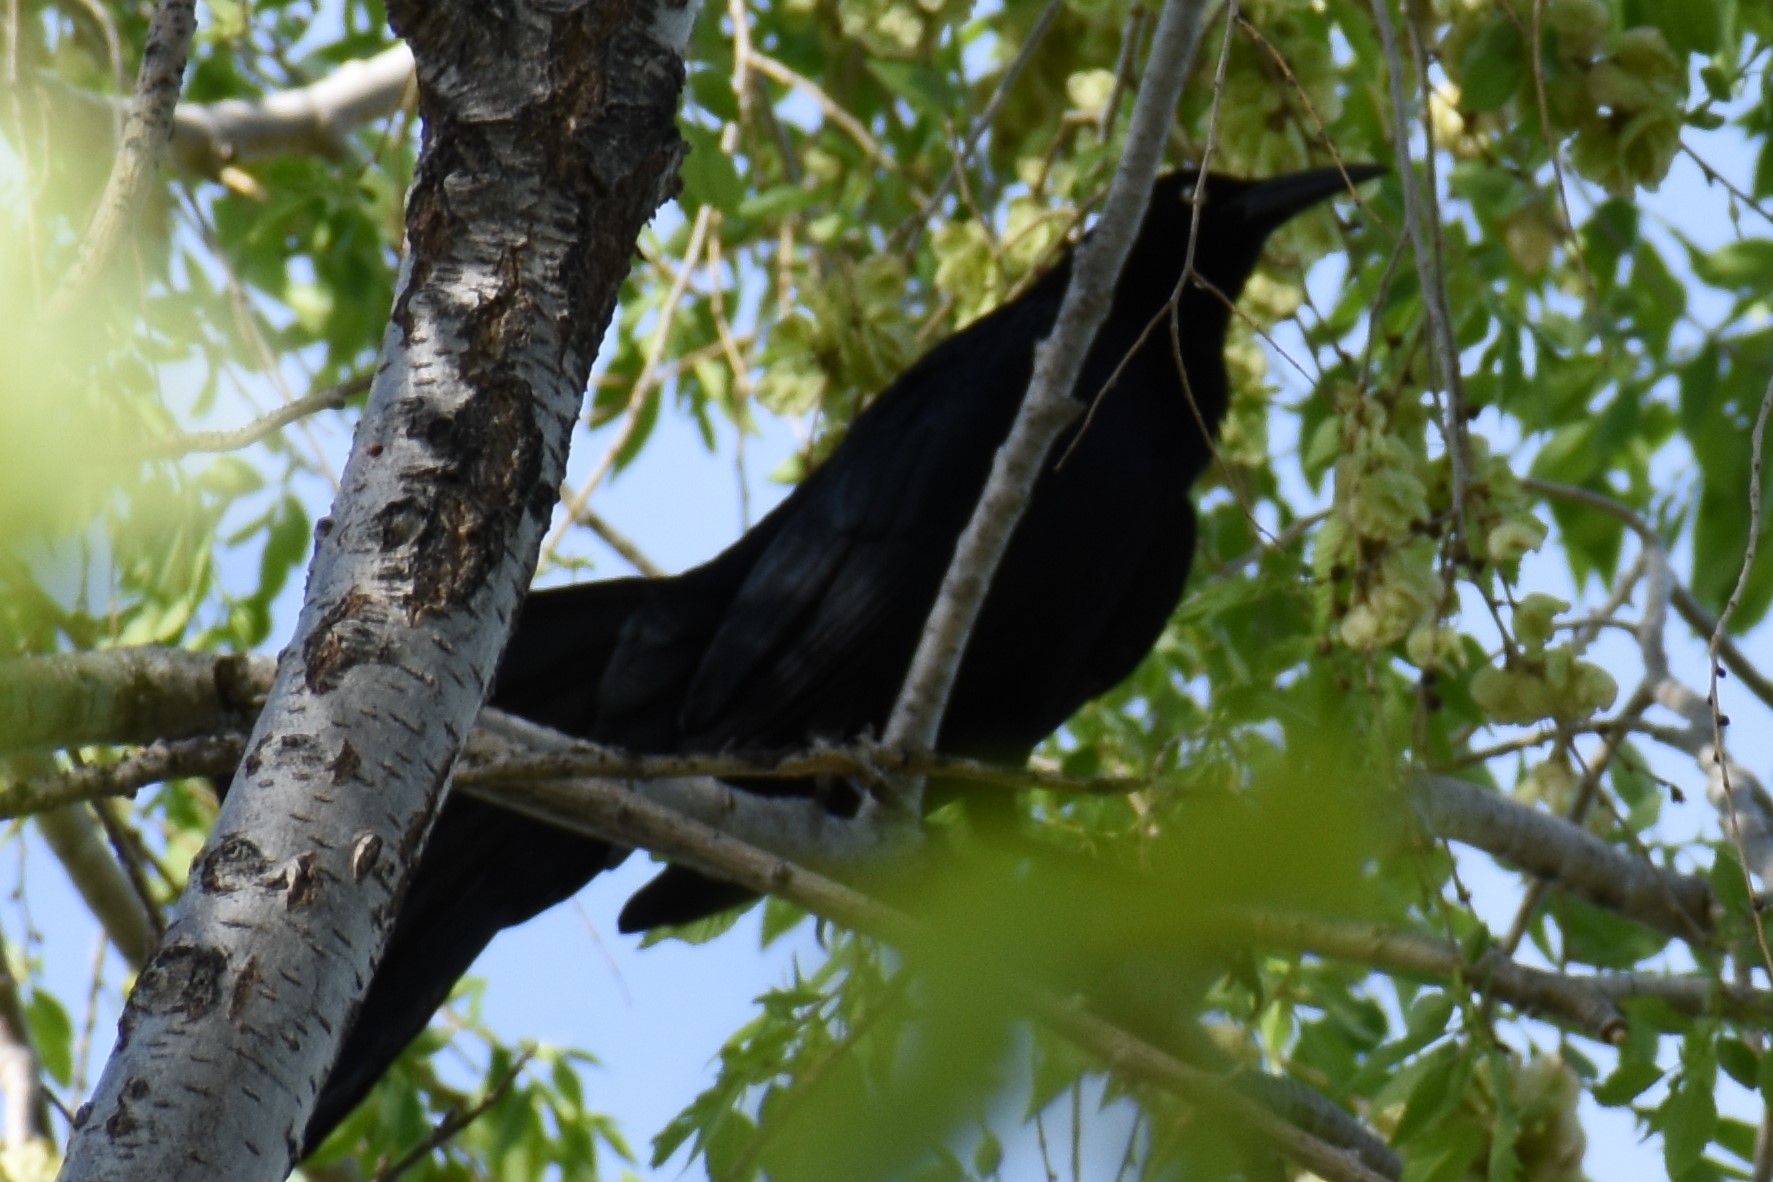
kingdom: Animalia
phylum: Chordata
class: Aves
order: Passeriformes
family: Icteridae
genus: Quiscalus
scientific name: Quiscalus mexicanus
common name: Great-tailed grackle
